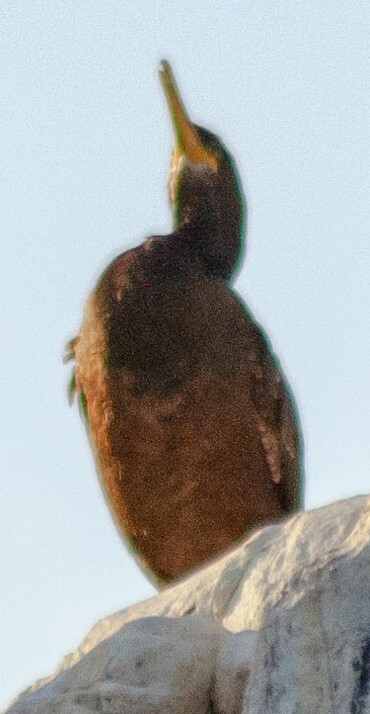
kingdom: Animalia
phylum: Chordata
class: Aves
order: Suliformes
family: Phalacrocoracidae
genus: Phalacrocorax
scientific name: Phalacrocorax aristotelis
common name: European shag
